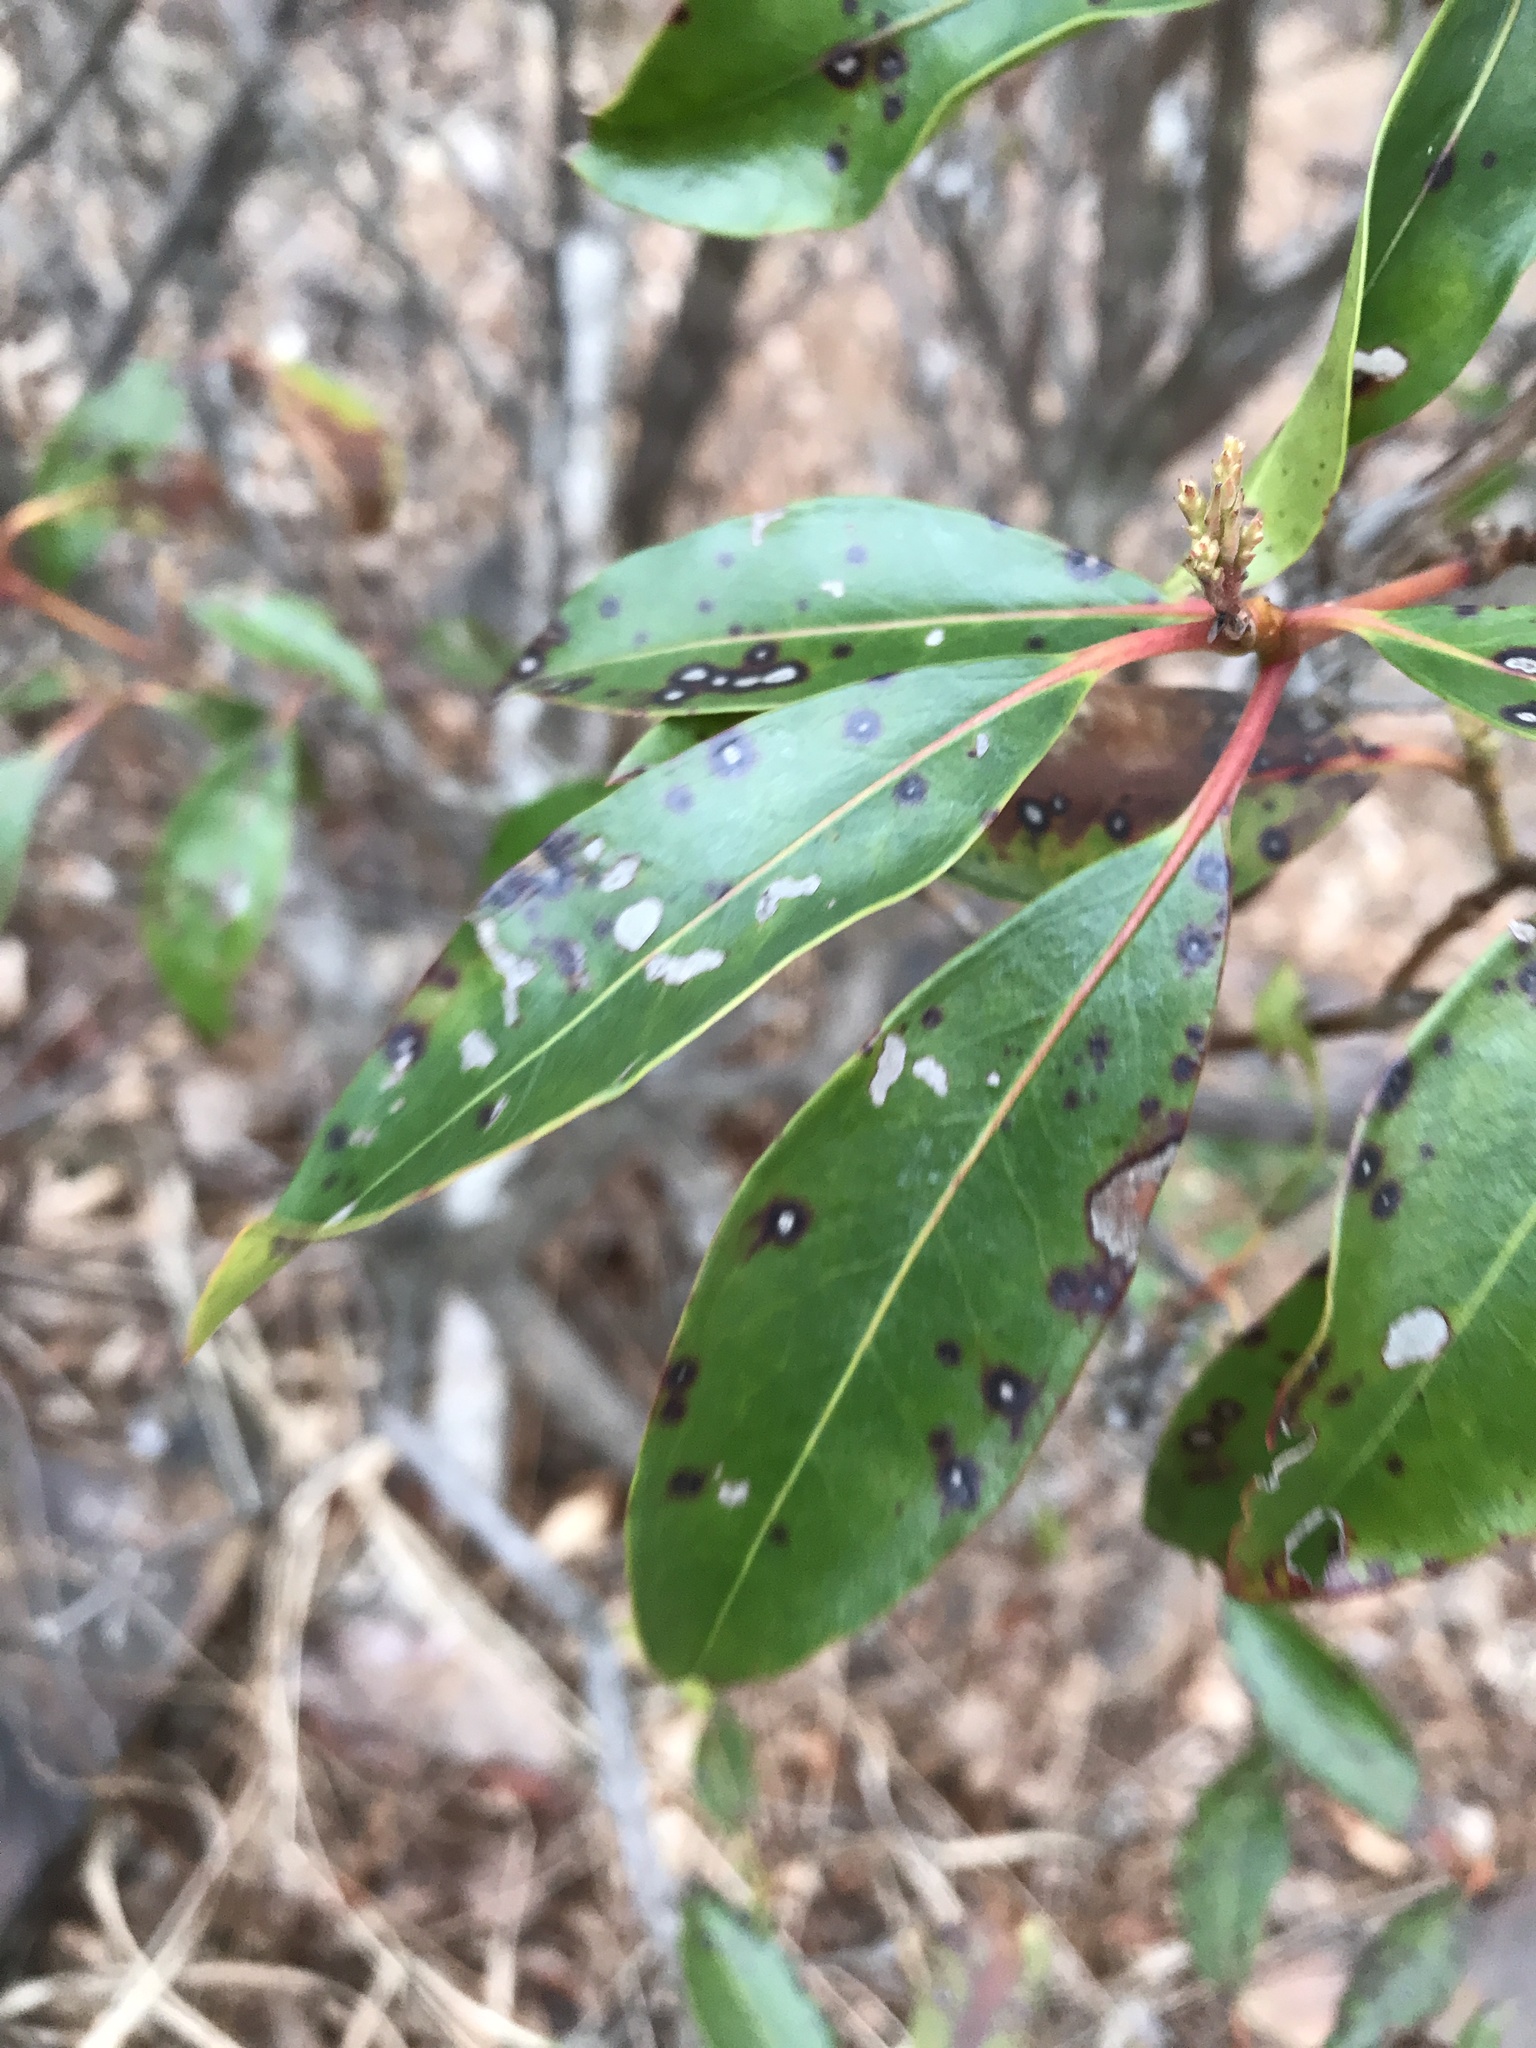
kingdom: Fungi
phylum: Ascomycota
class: Dothideomycetes
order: Mycosphaerellales
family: Mycosphaerellaceae
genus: Mycosphaerella
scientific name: Mycosphaerella colorata
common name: Mountain laurel leaf spot
